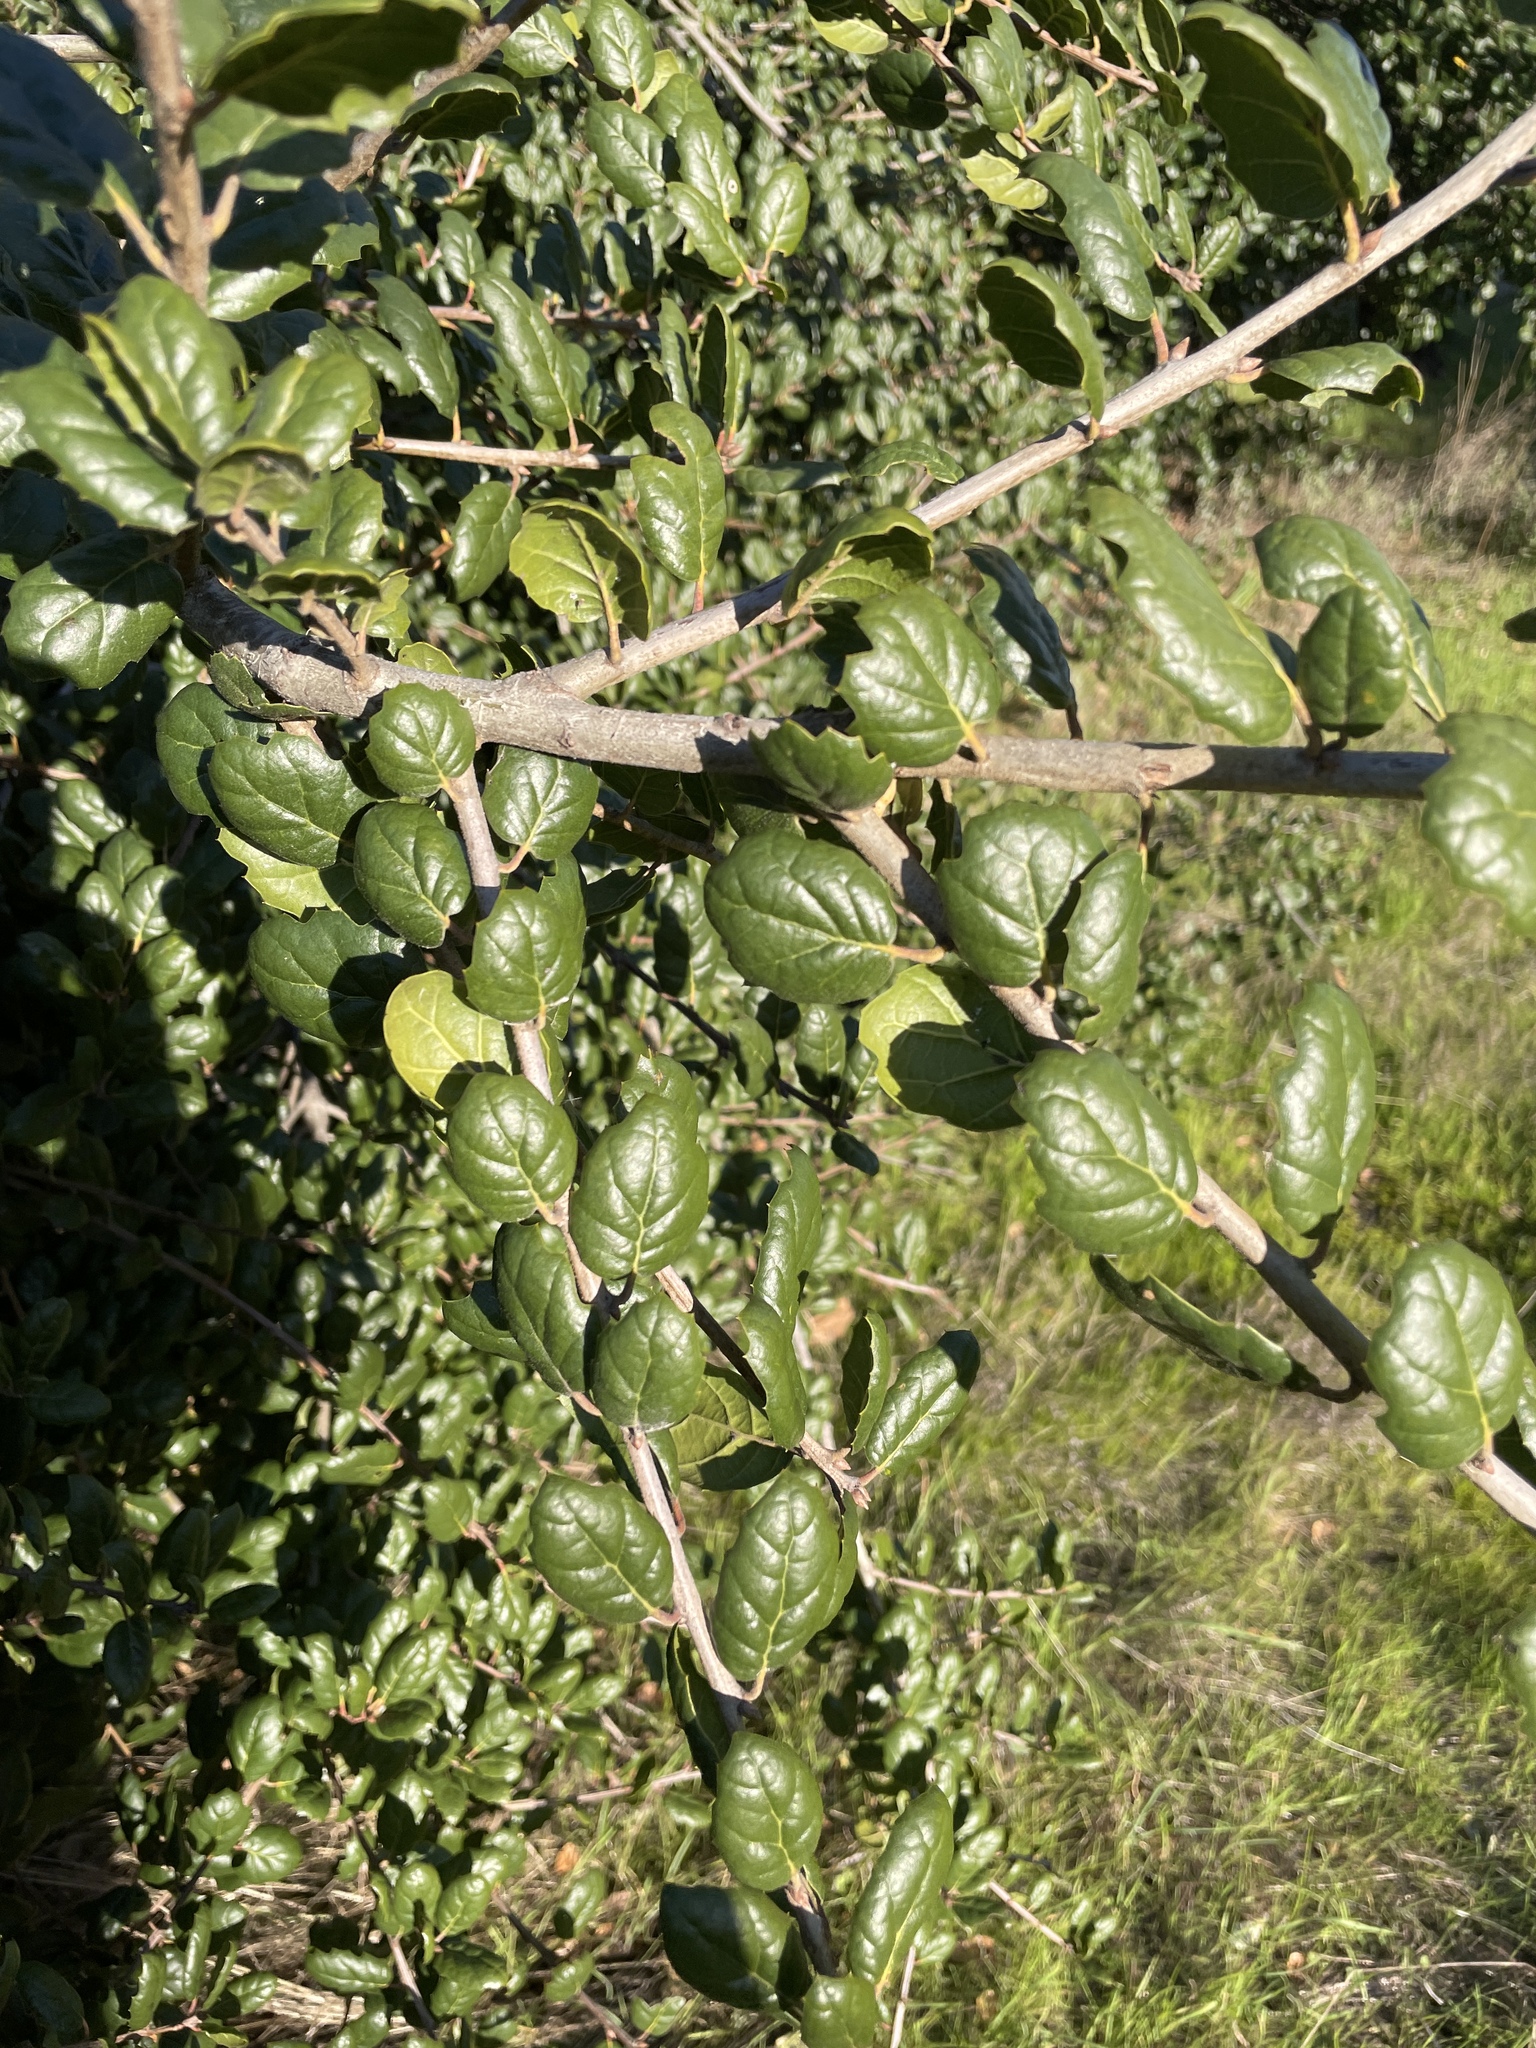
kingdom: Plantae
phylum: Tracheophyta
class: Magnoliopsida
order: Fagales
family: Fagaceae
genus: Quercus
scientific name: Quercus agrifolia
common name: California live oak
